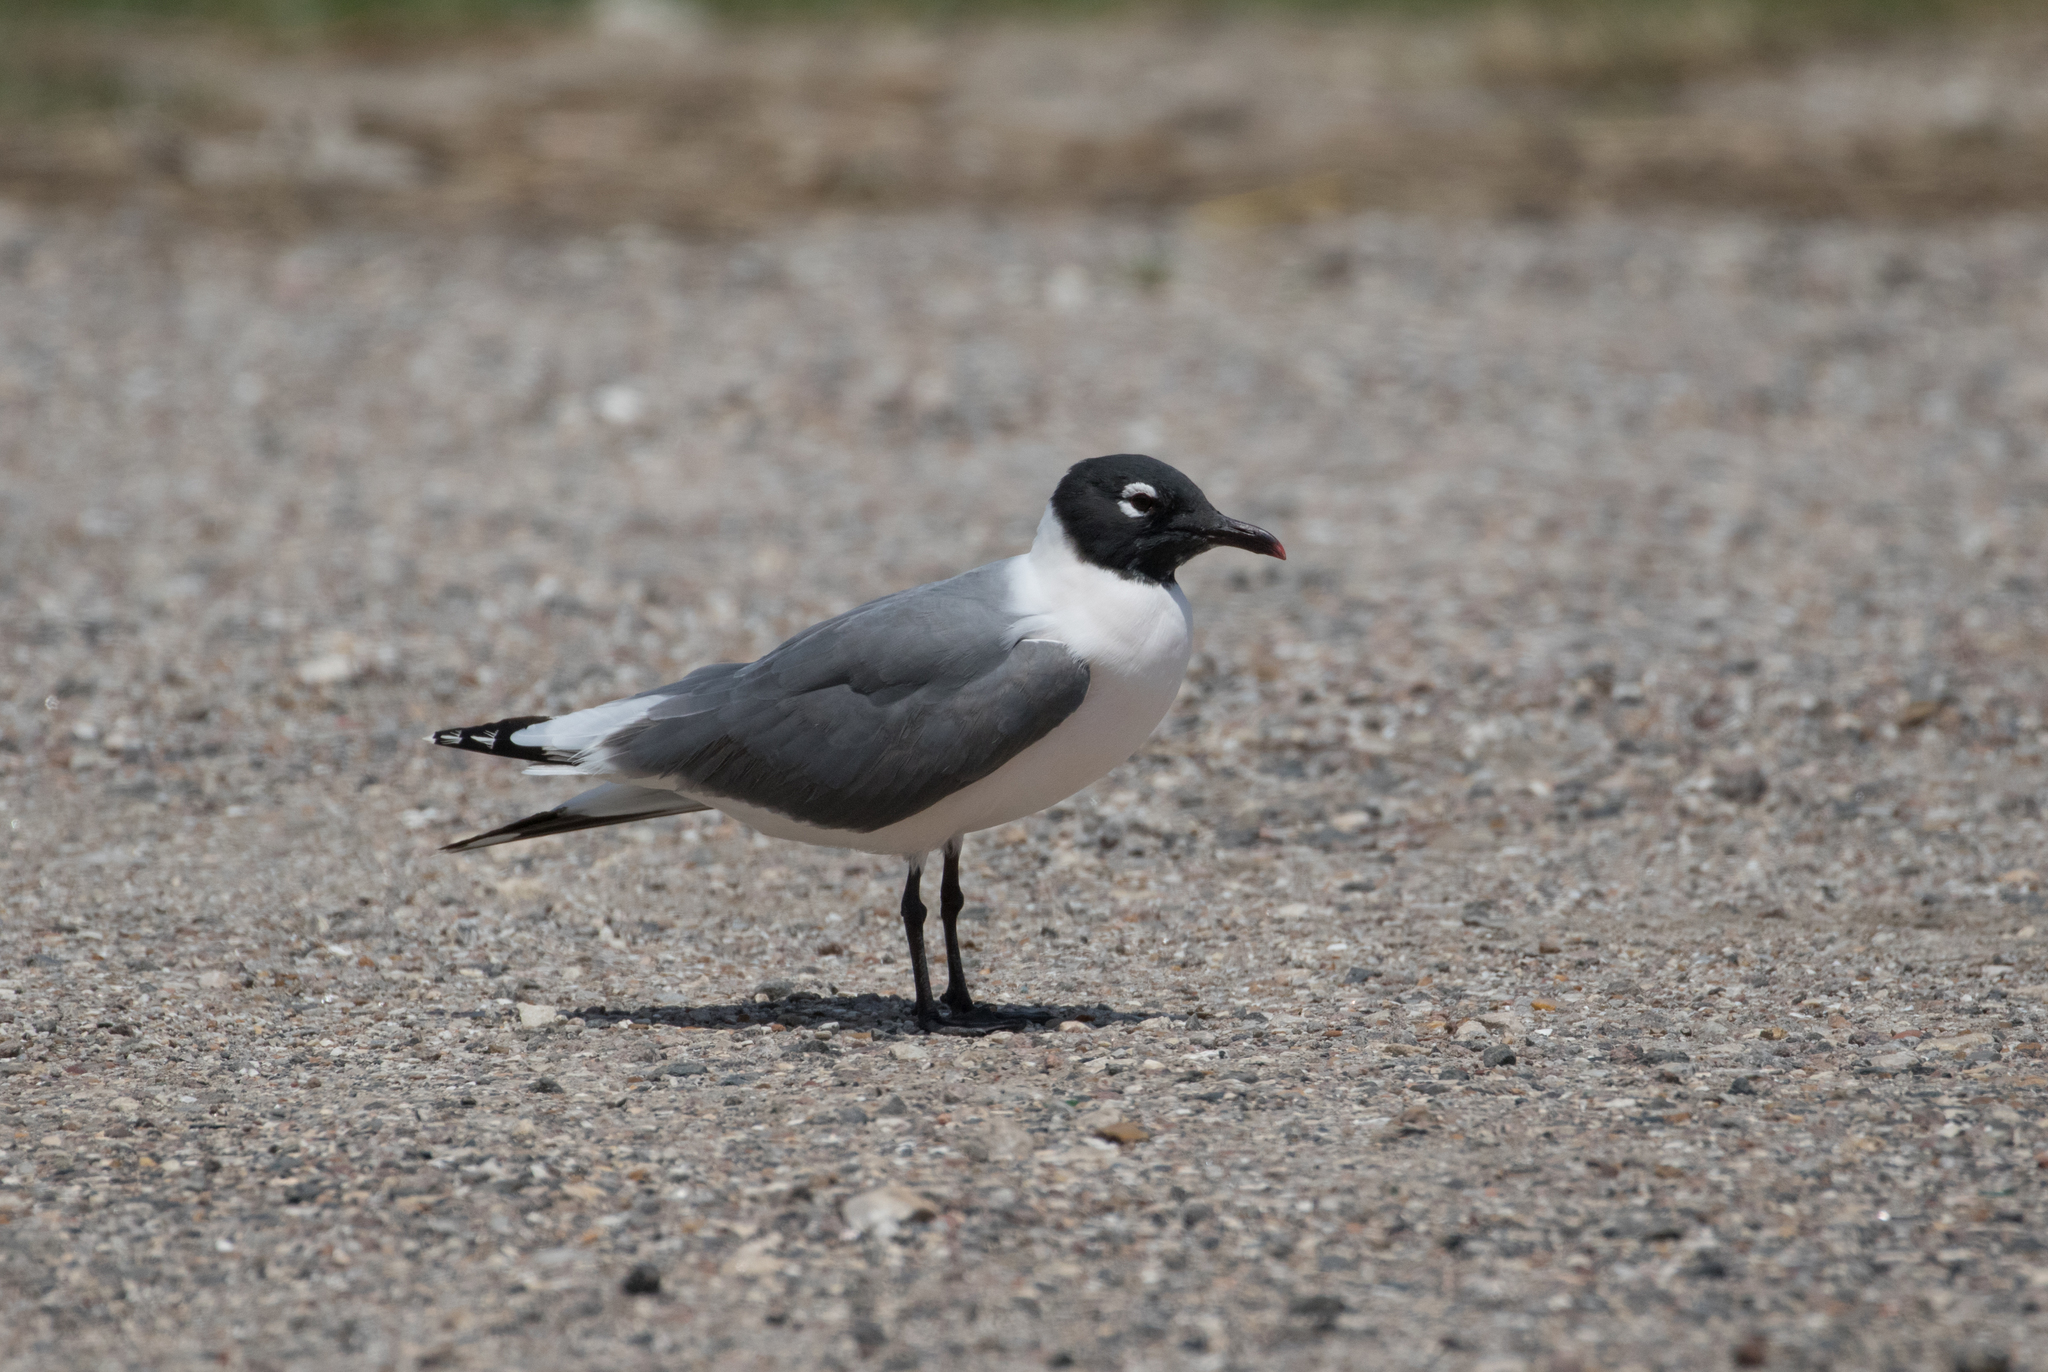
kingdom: Animalia
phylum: Chordata
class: Aves
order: Charadriiformes
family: Laridae
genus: Leucophaeus
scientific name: Leucophaeus pipixcan
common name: Franklin's gull
